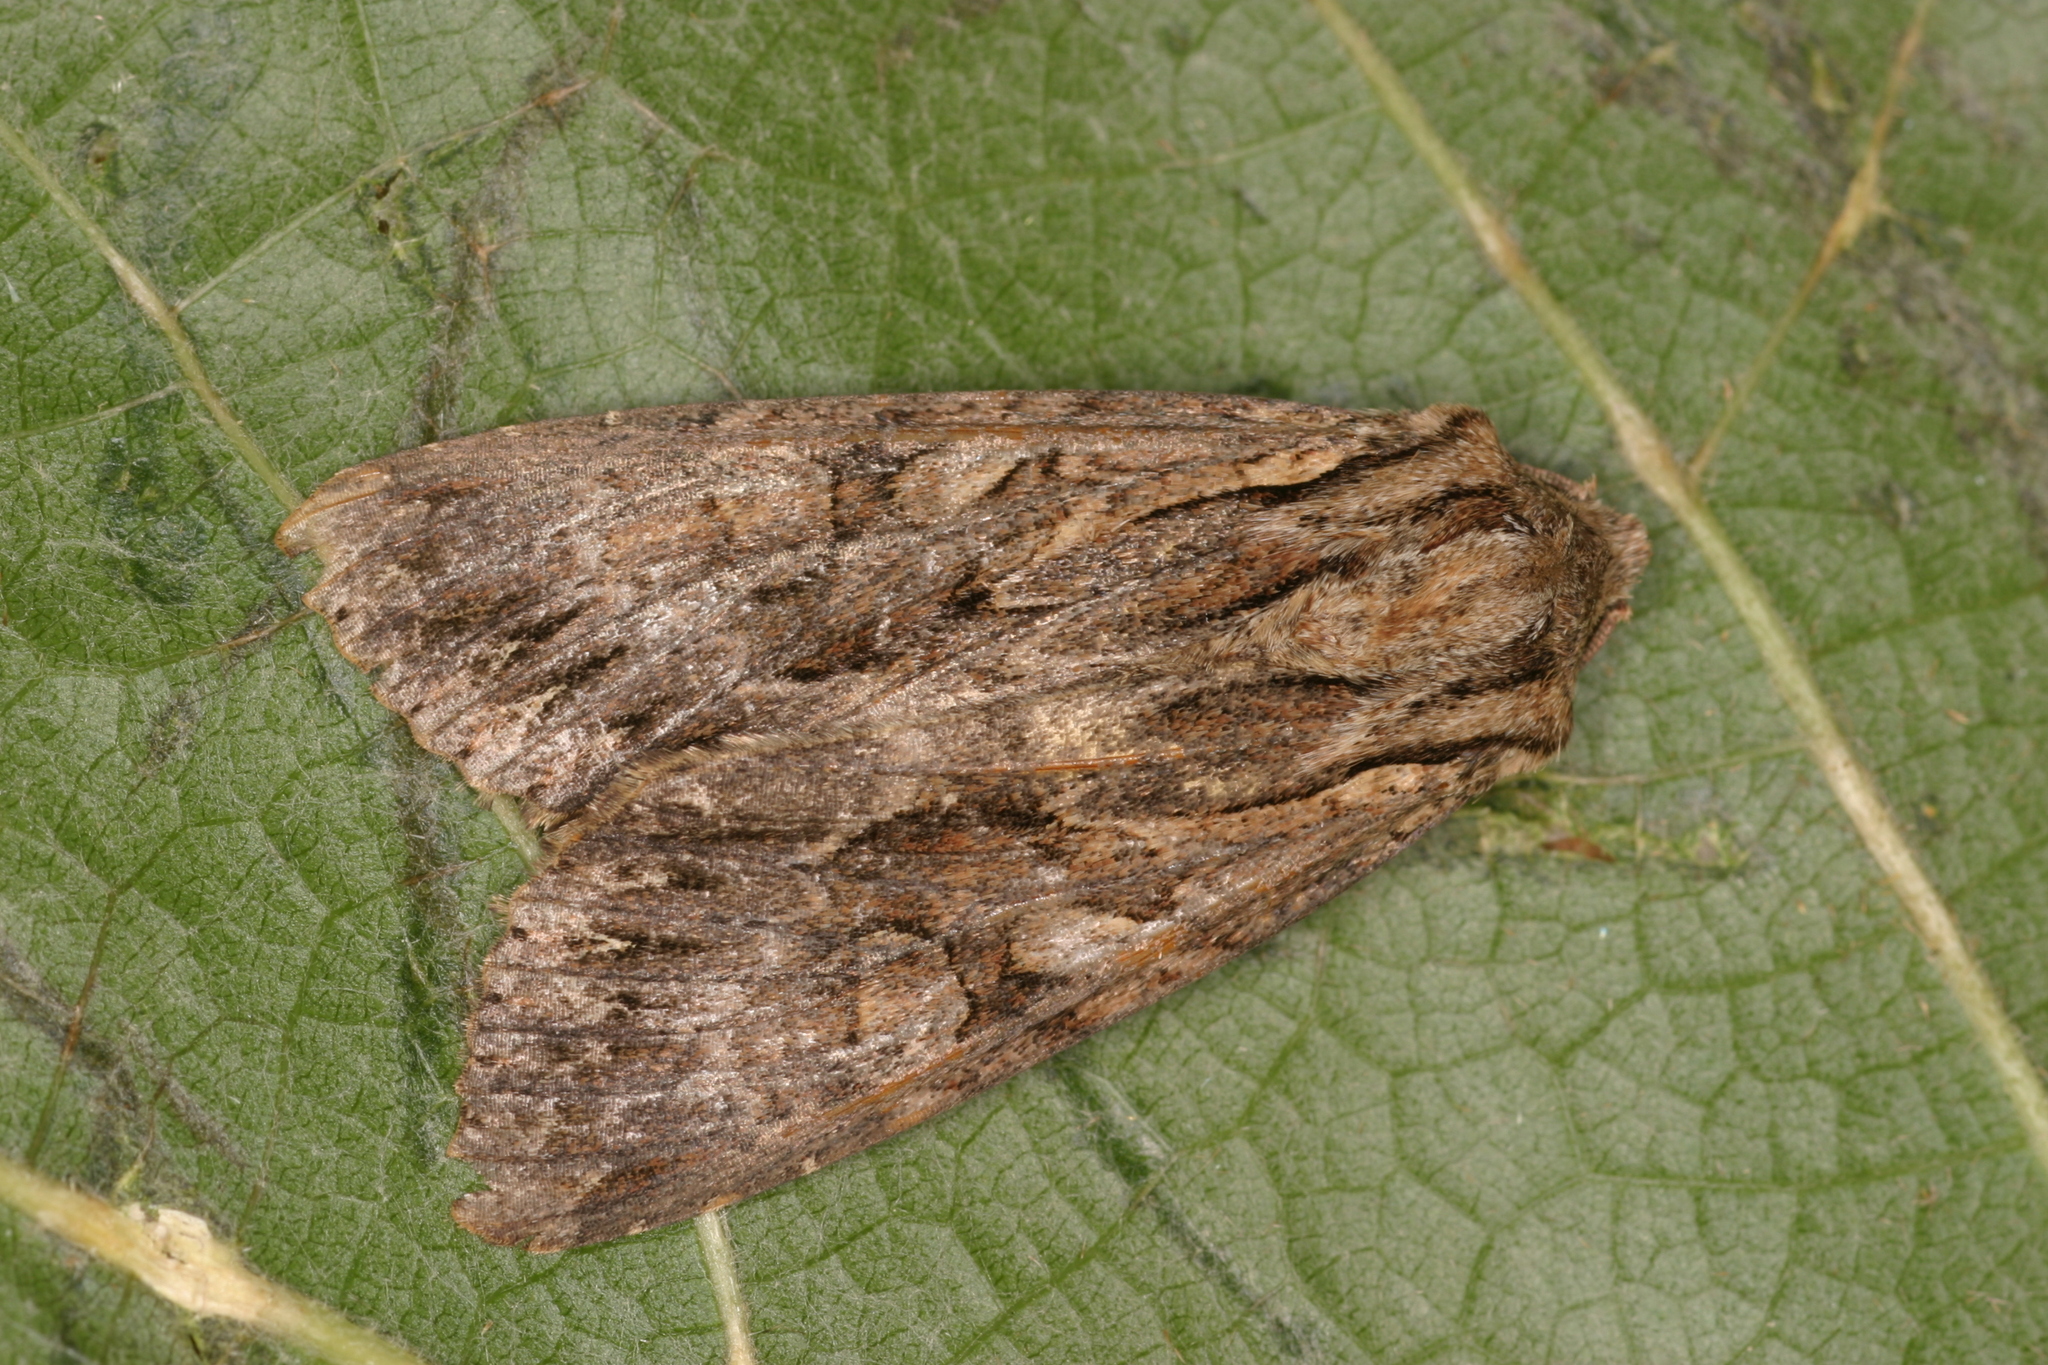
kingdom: Animalia
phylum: Arthropoda
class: Insecta
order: Lepidoptera
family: Noctuidae
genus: Apamea
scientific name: Apamea monoglypha
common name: Dark arches
